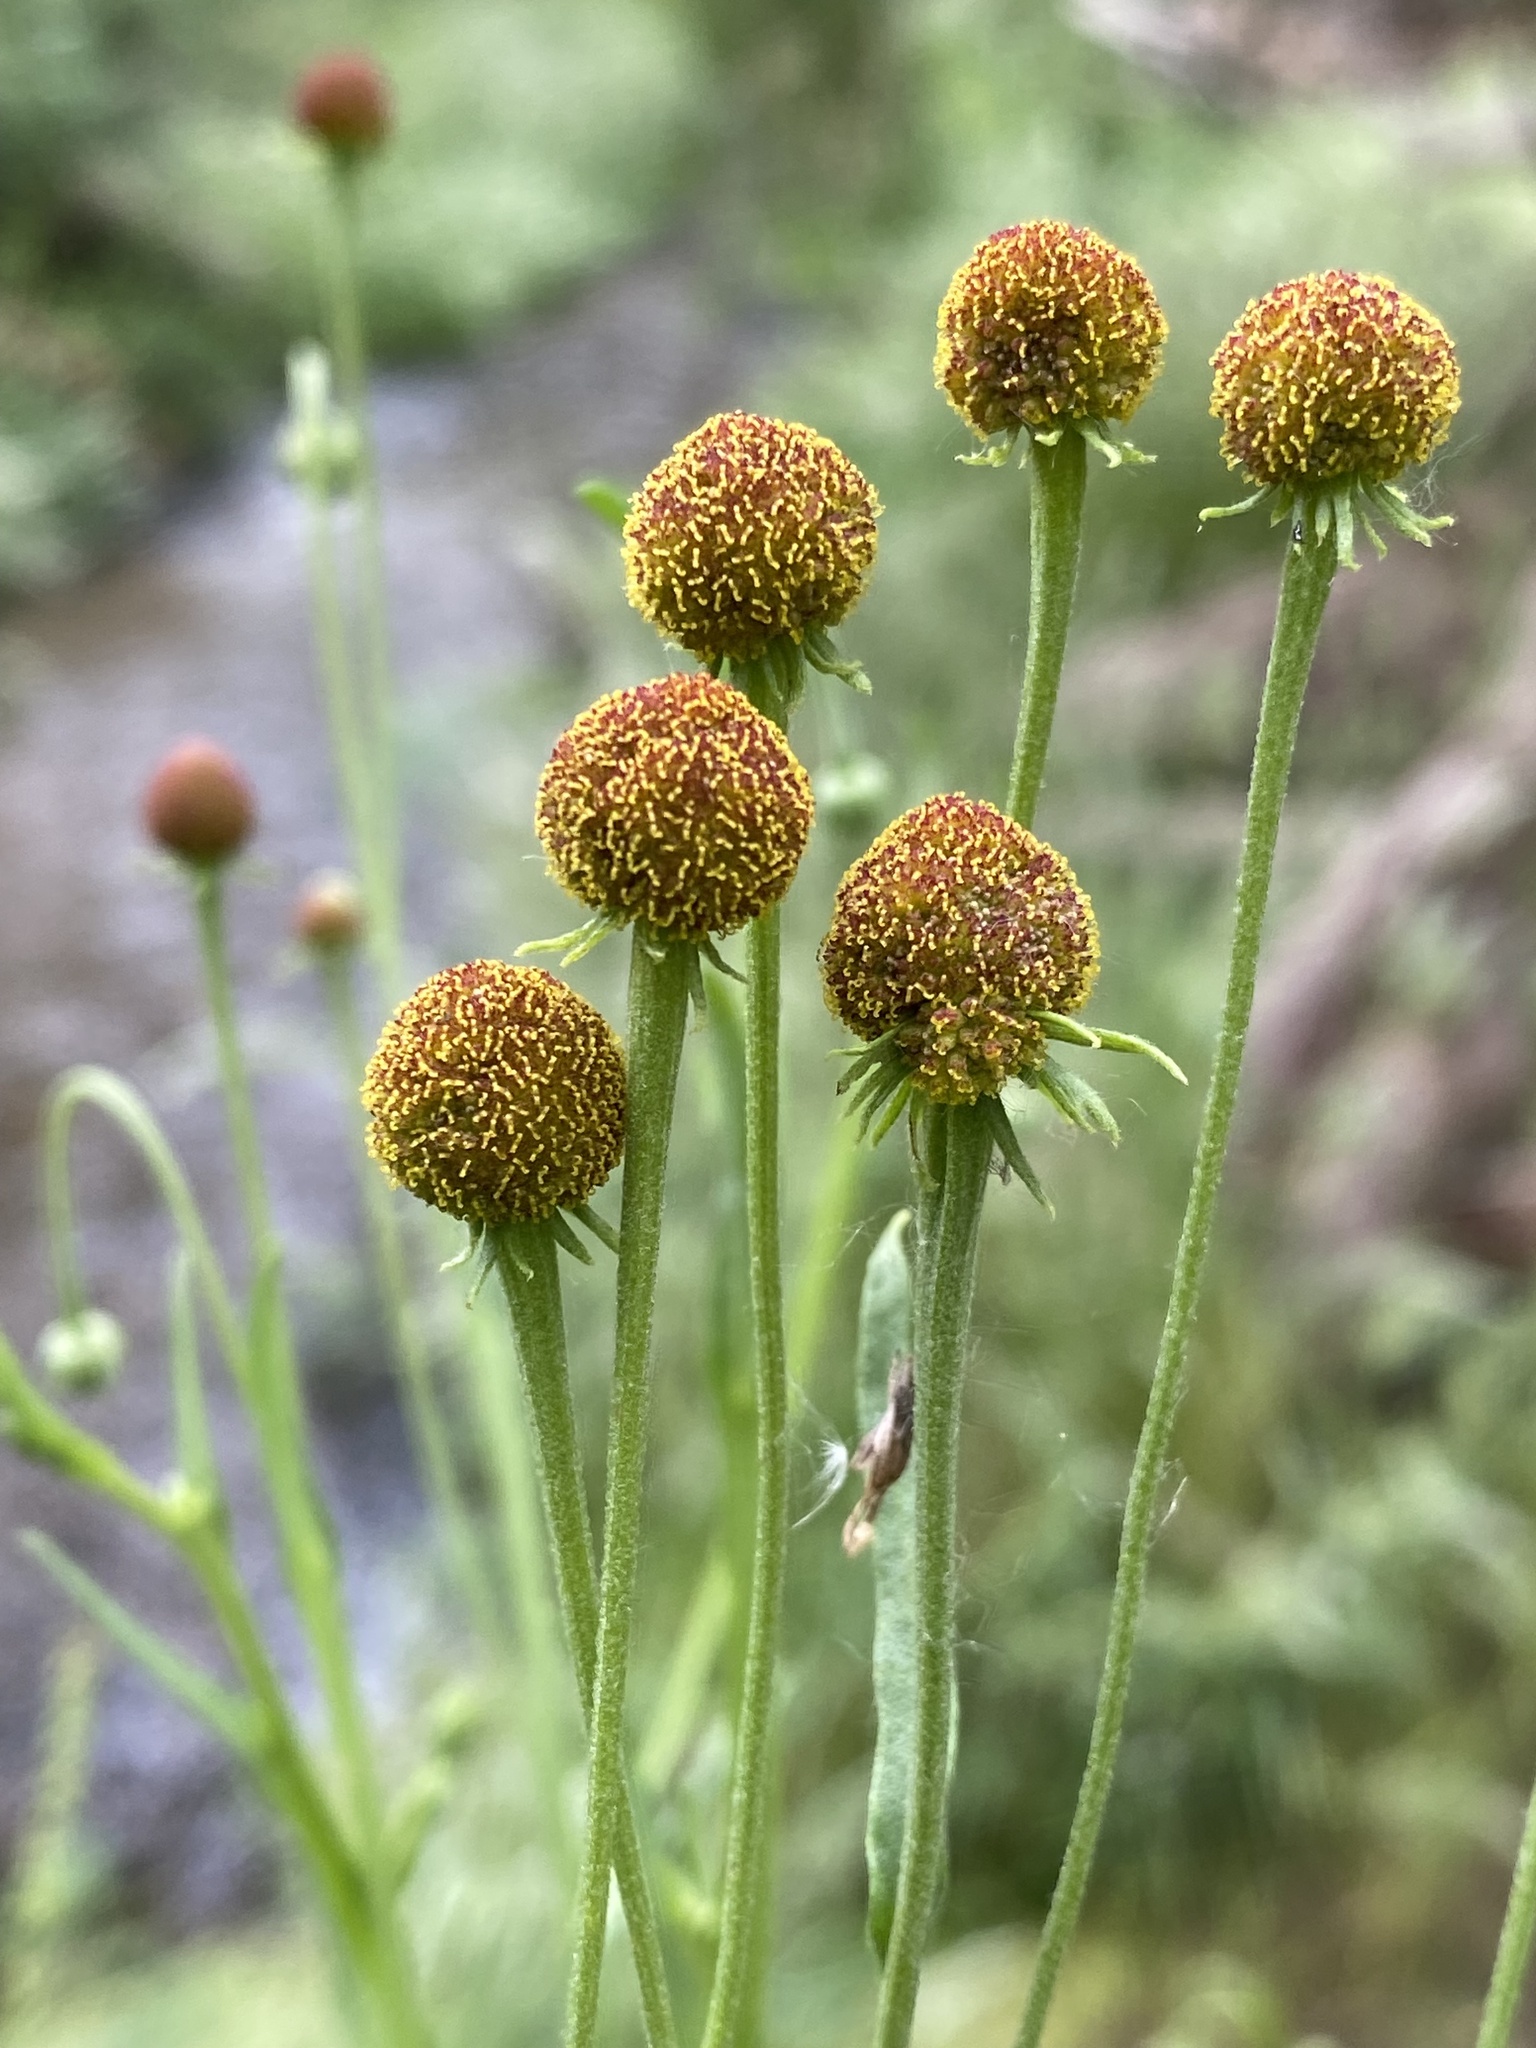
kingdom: Plantae
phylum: Tracheophyta
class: Magnoliopsida
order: Asterales
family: Asteraceae
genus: Helenium
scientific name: Helenium thurberi
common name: Thurber's sneezeweed
